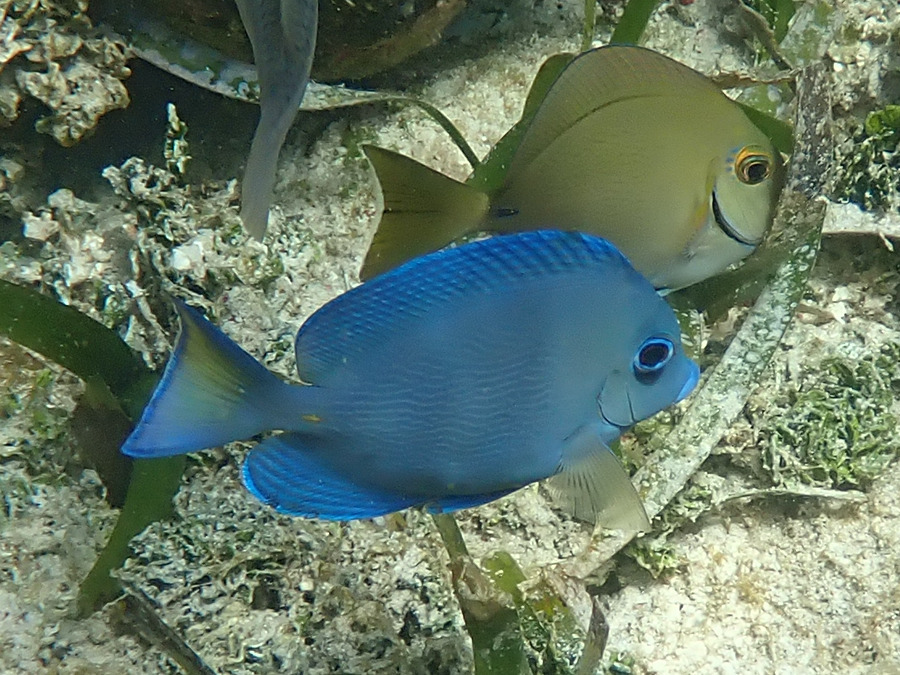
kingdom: Animalia
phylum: Chordata
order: Perciformes
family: Acanthuridae
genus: Acanthurus
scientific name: Acanthurus coeruleus
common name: Blue tang
